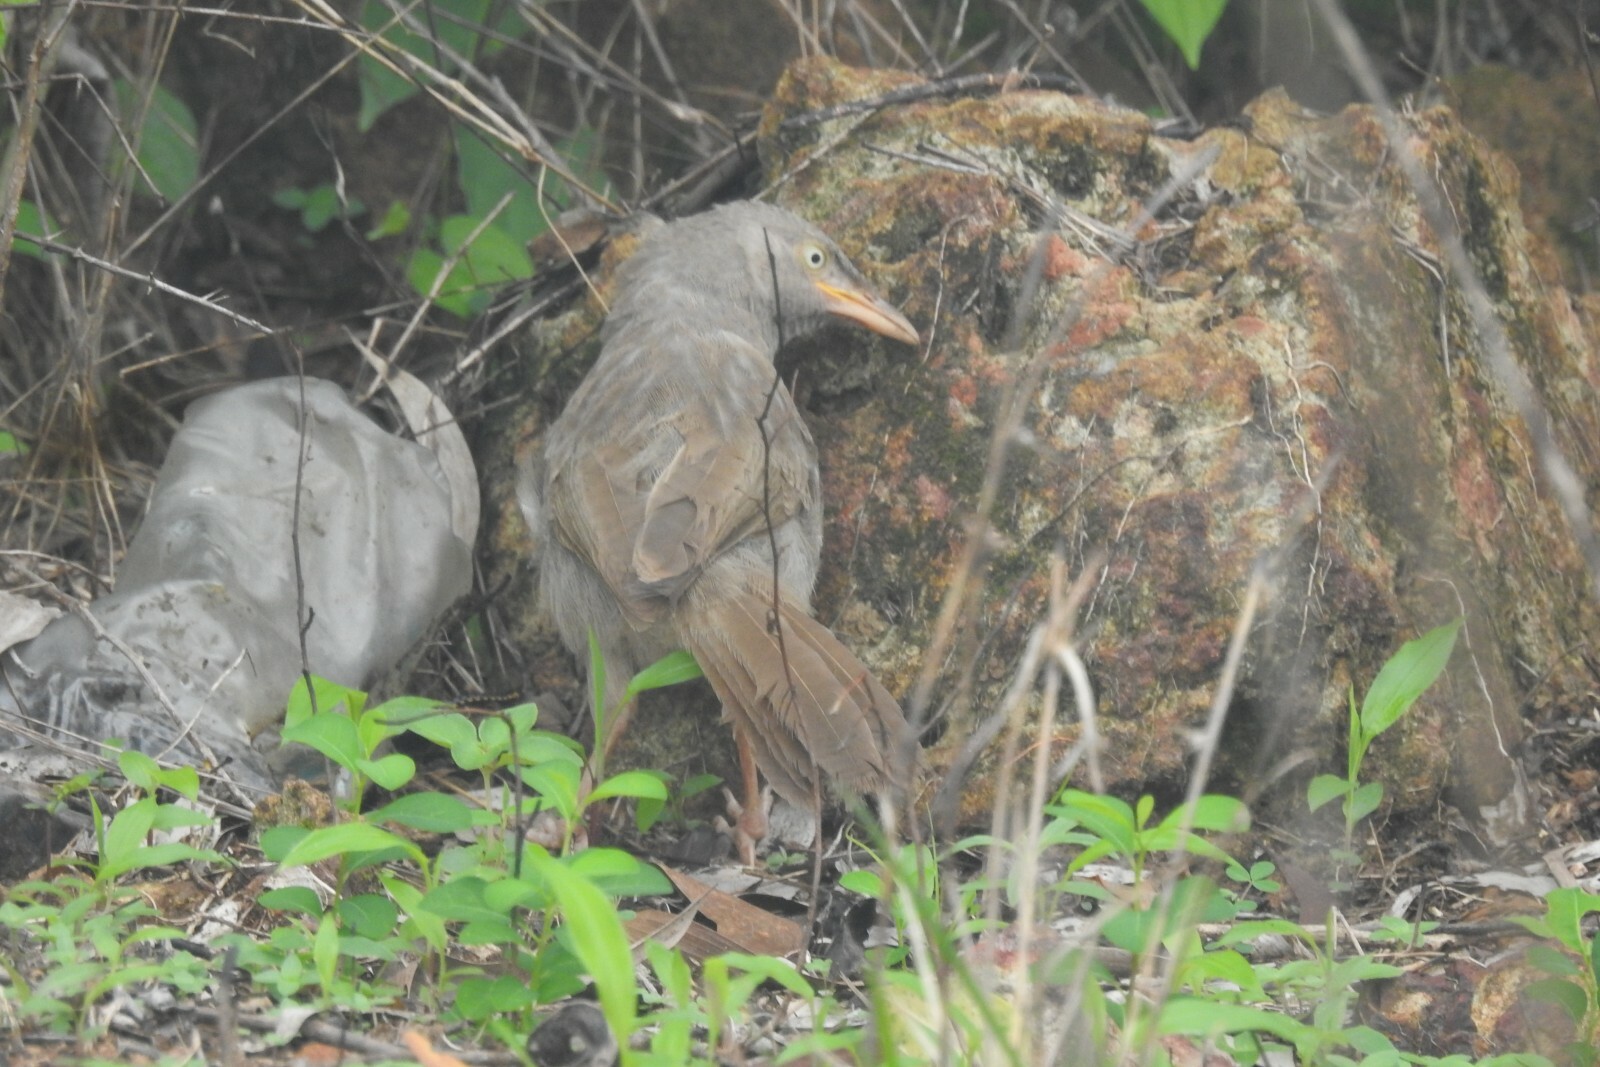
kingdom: Animalia
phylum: Chordata
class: Aves
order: Passeriformes
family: Leiothrichidae
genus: Turdoides
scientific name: Turdoides striata
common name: Jungle babbler
